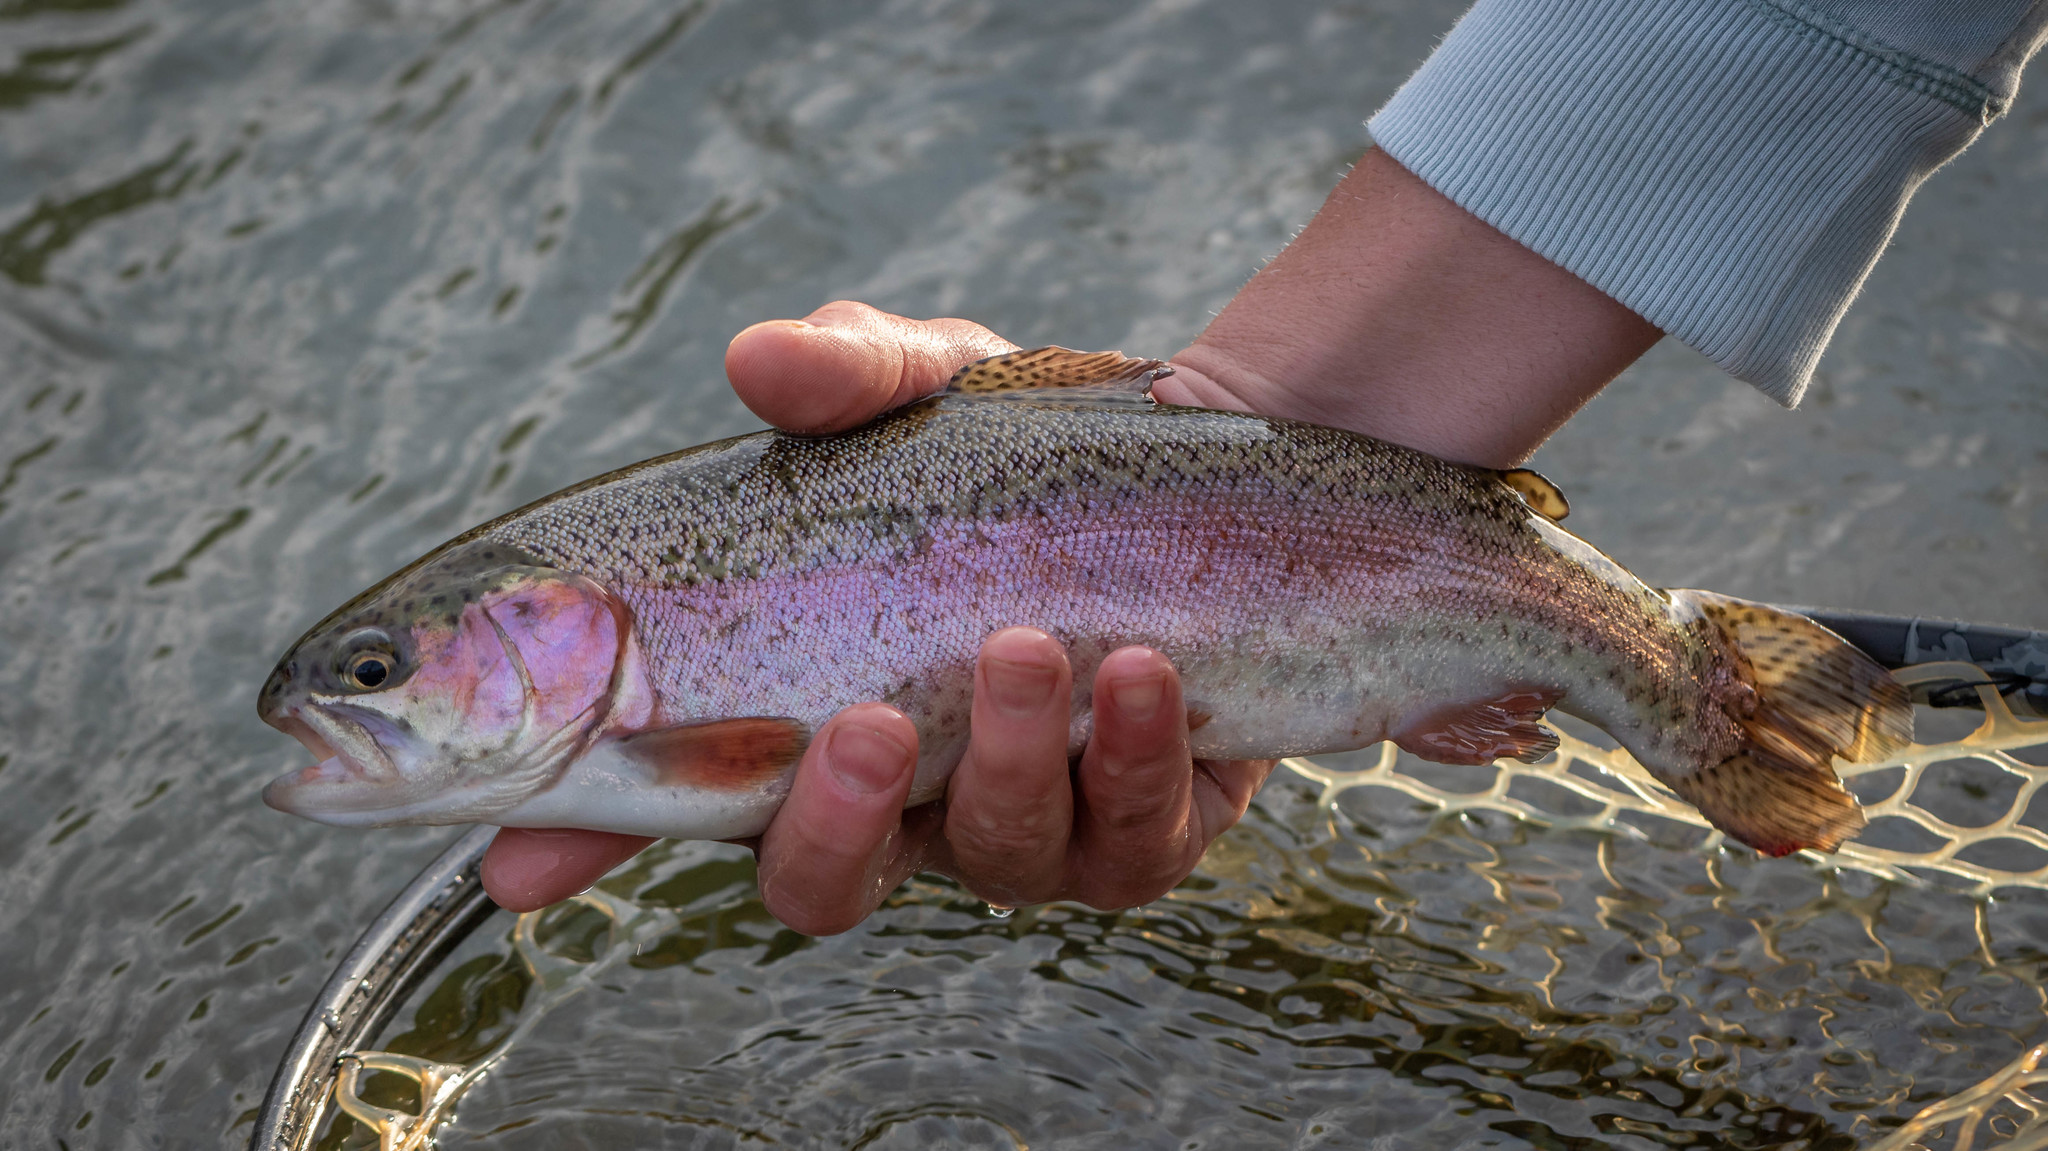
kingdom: Animalia
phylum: Chordata
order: Salmoniformes
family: Salmonidae
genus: Oncorhynchus
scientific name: Oncorhynchus mykiss
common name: Rainbow trout
